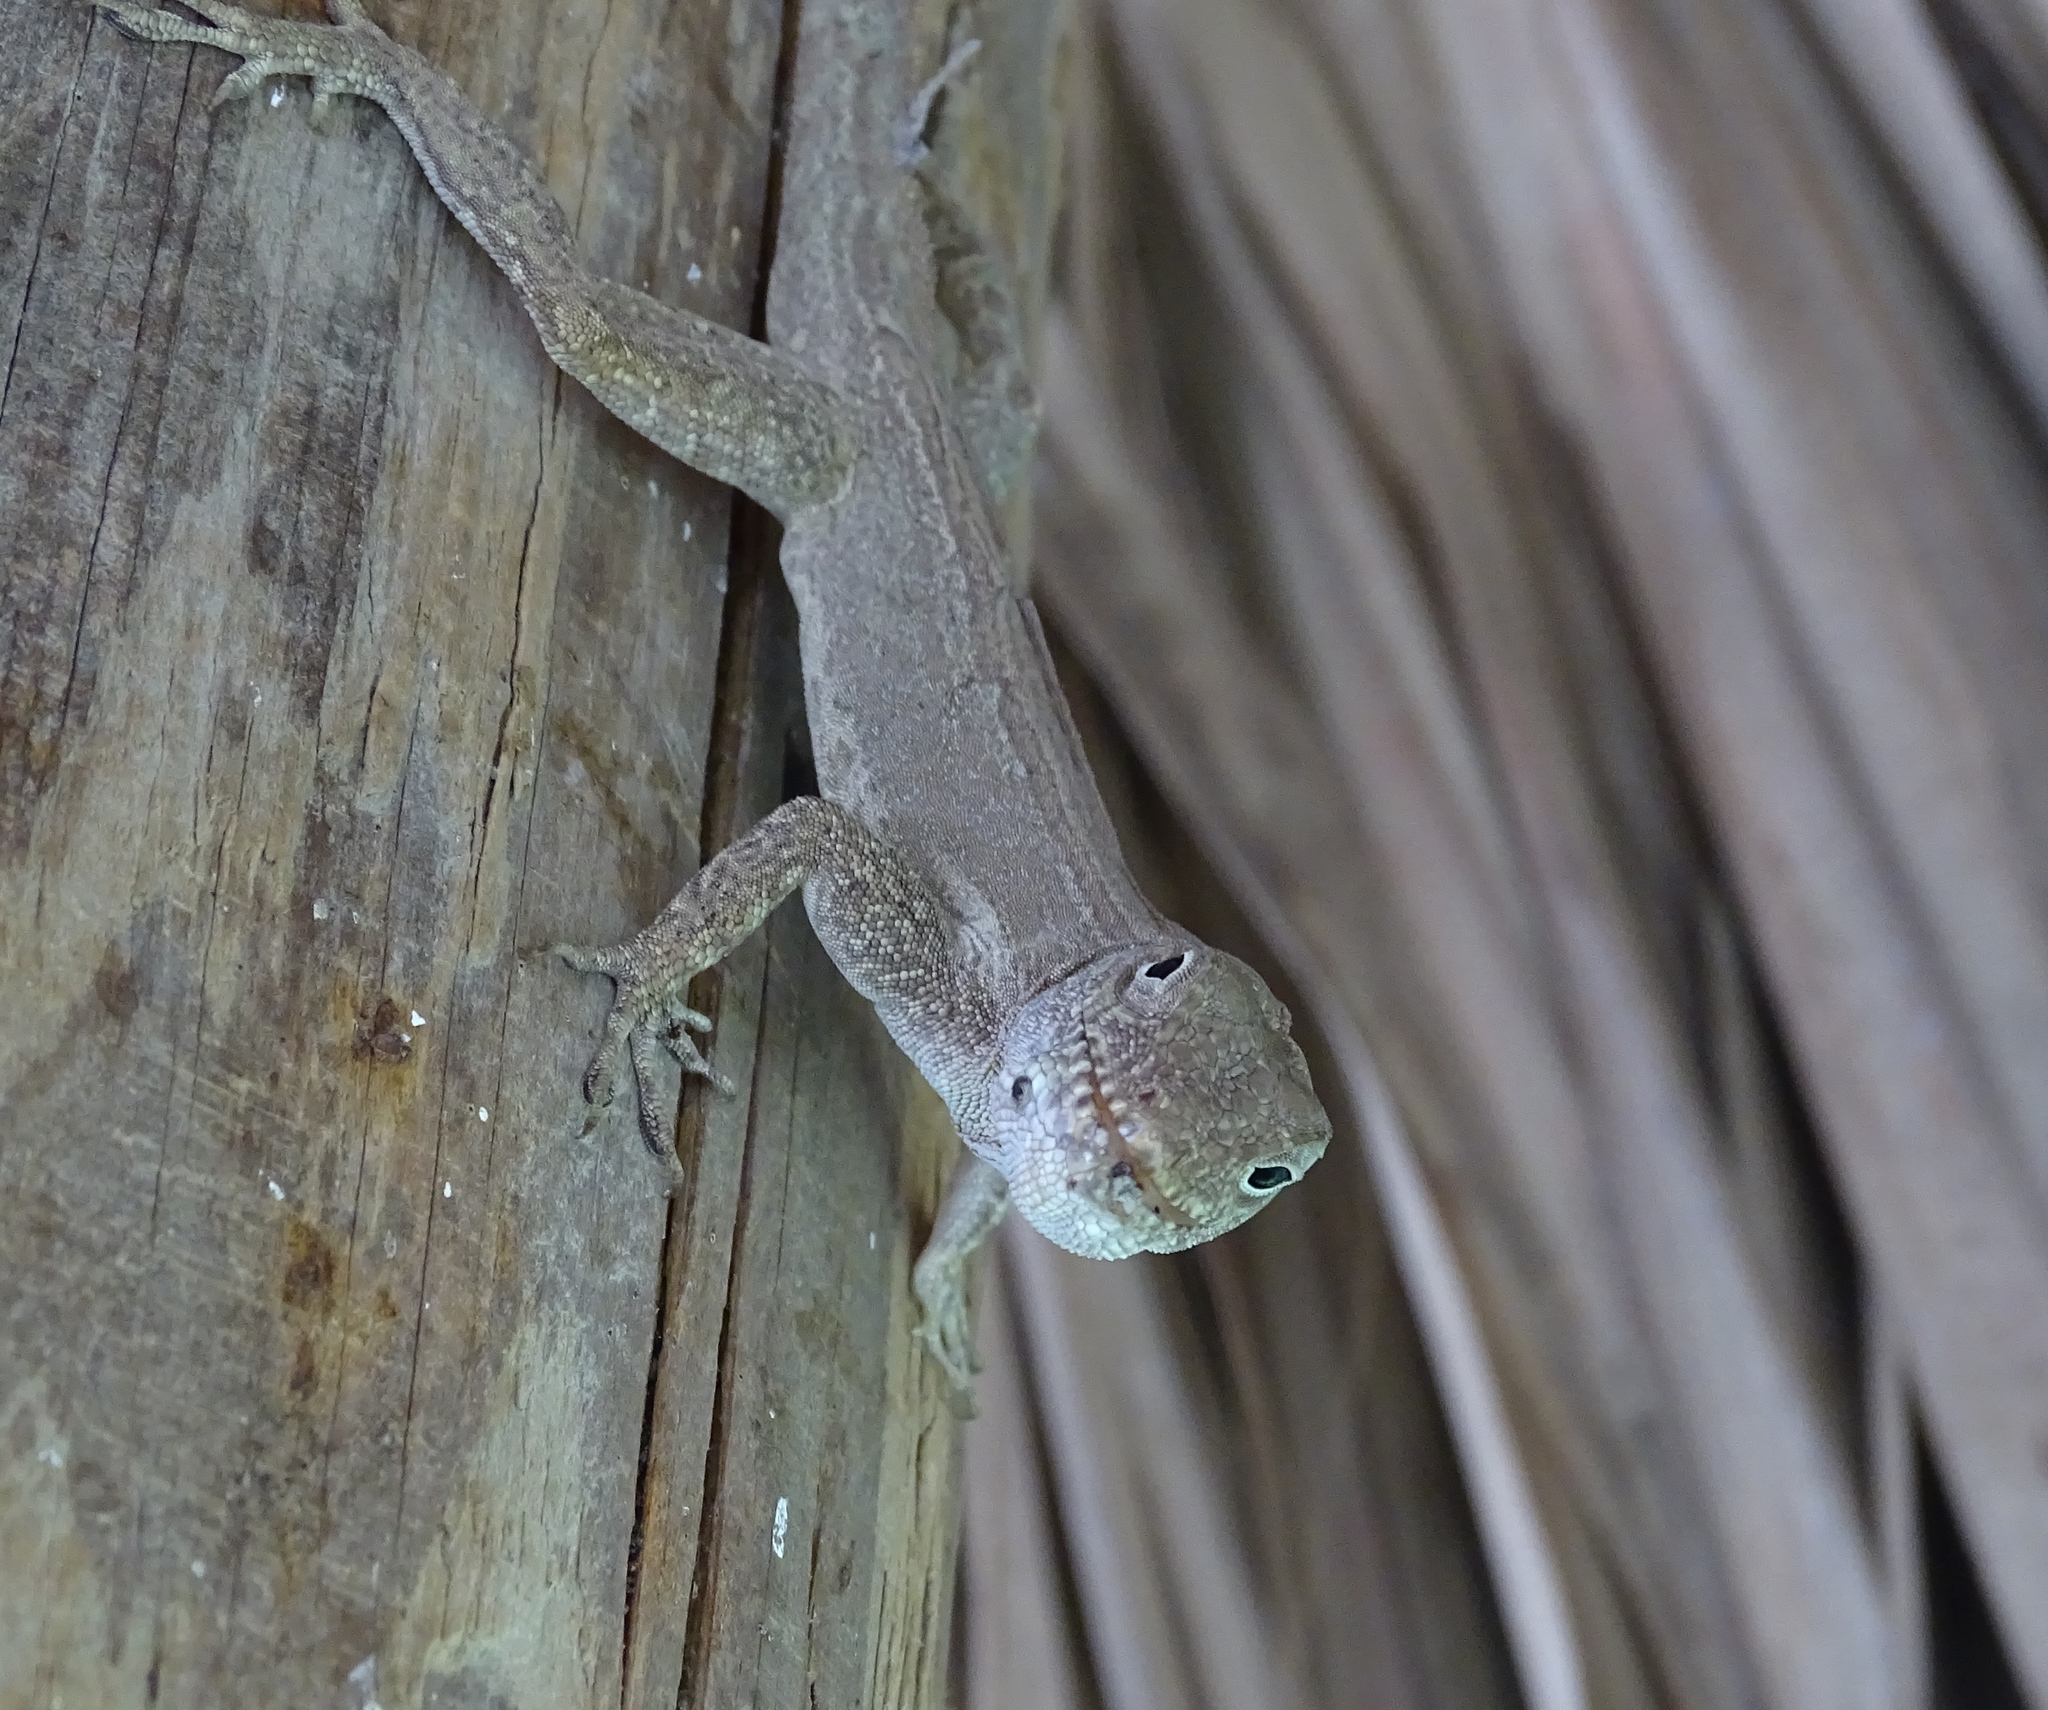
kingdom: Animalia
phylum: Chordata
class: Squamata
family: Dactyloidae
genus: Anolis
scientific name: Anolis cristatellus
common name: Crested anole
